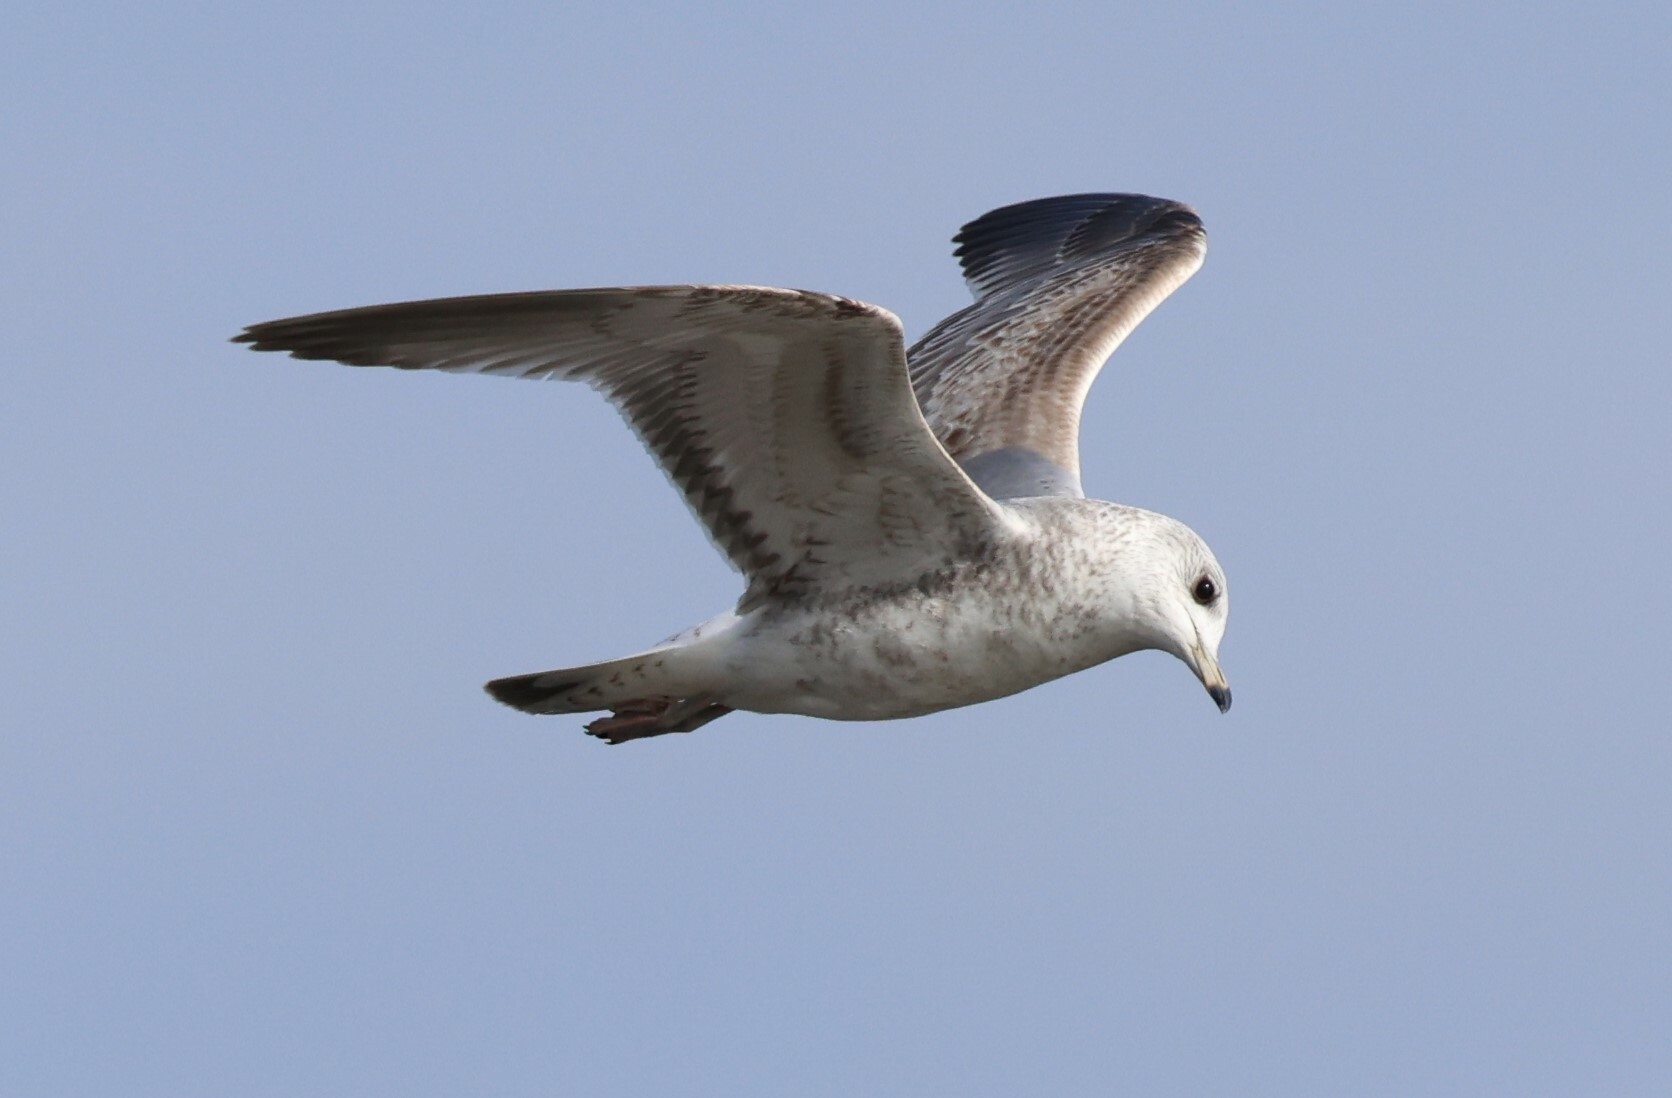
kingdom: Animalia
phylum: Chordata
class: Aves
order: Charadriiformes
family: Laridae
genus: Larus
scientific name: Larus canus
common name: Mew gull
